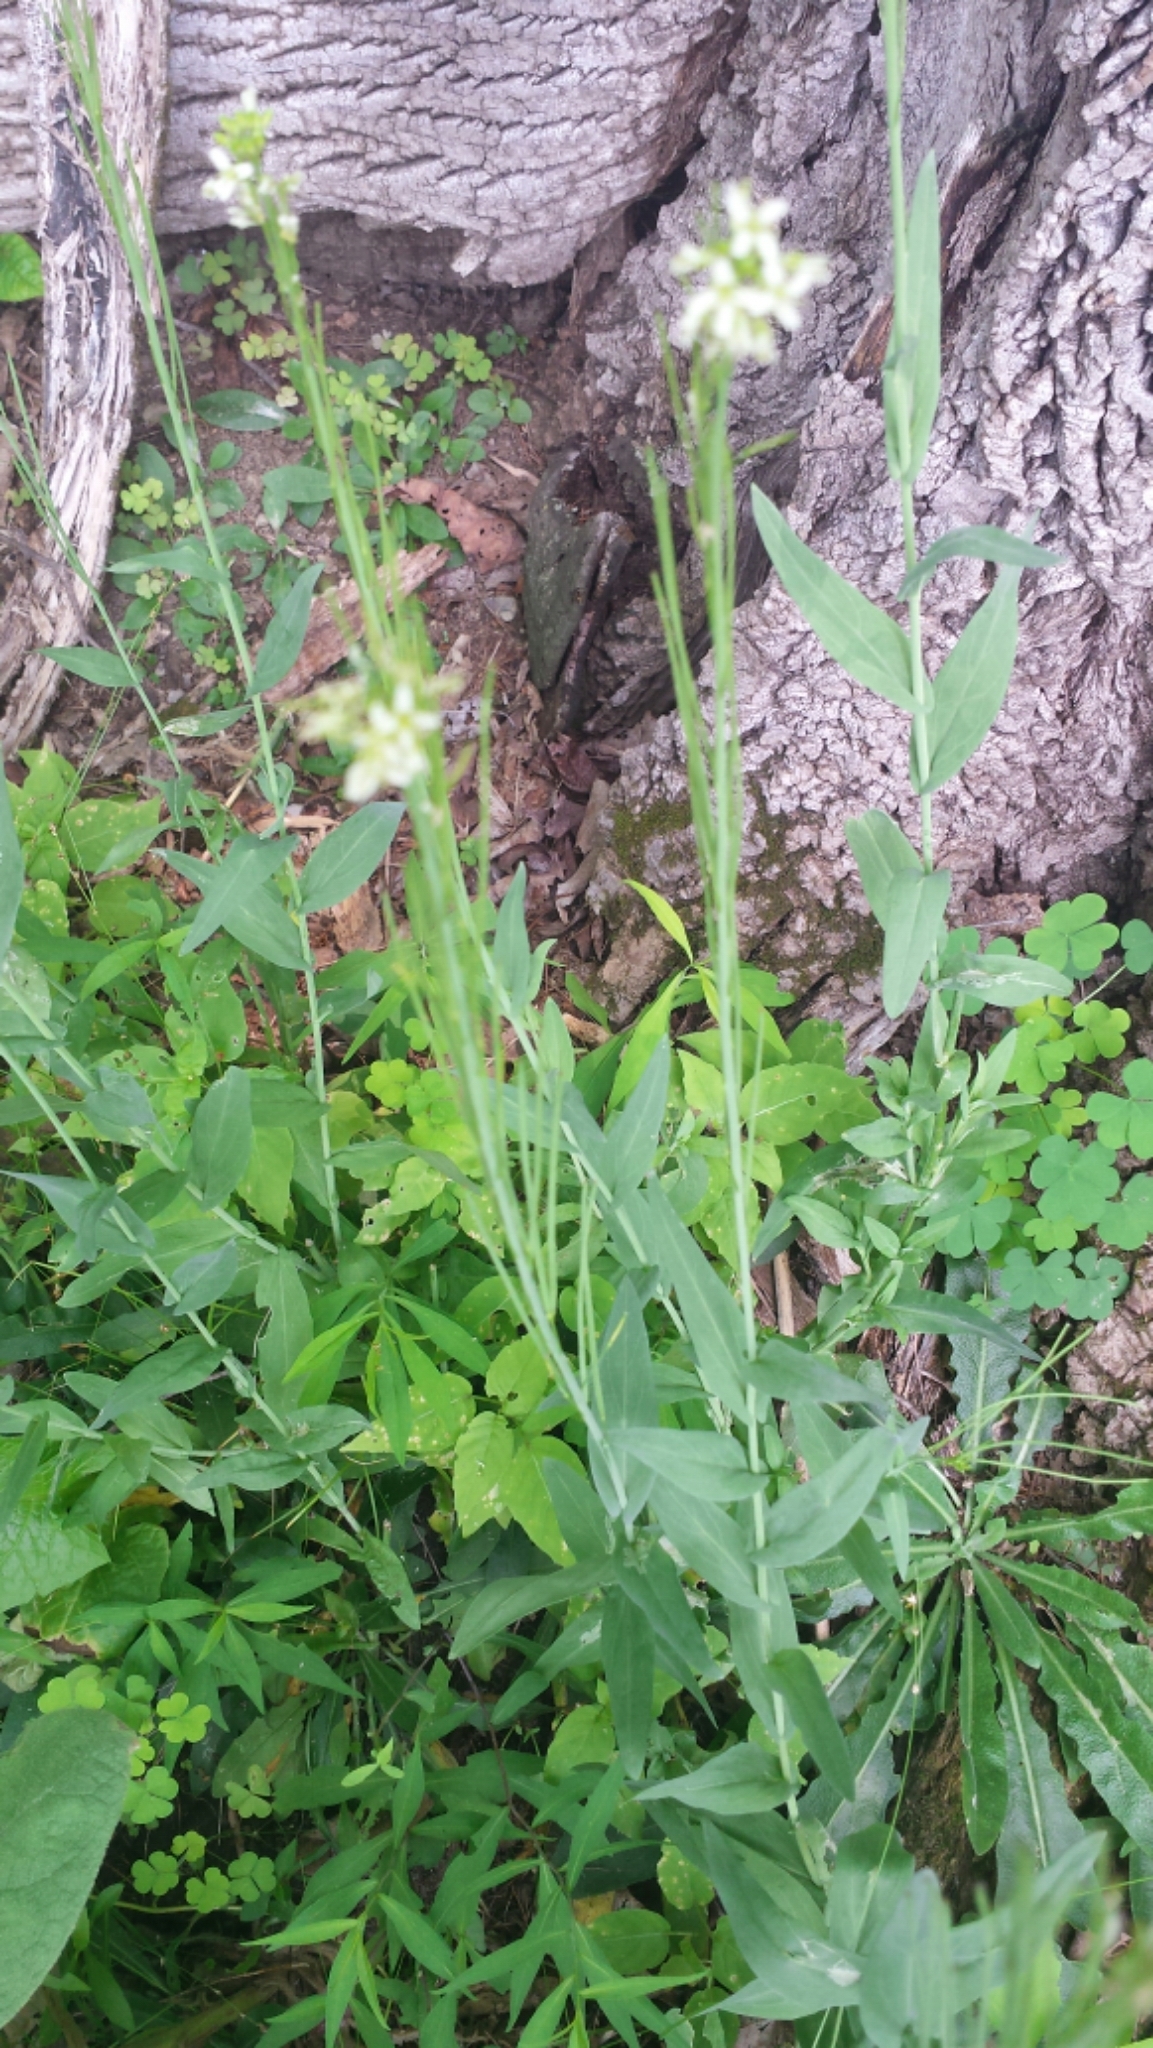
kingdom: Plantae
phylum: Tracheophyta
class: Magnoliopsida
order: Brassicales
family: Brassicaceae
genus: Turritis
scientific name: Turritis glabra
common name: Tower rockcress
